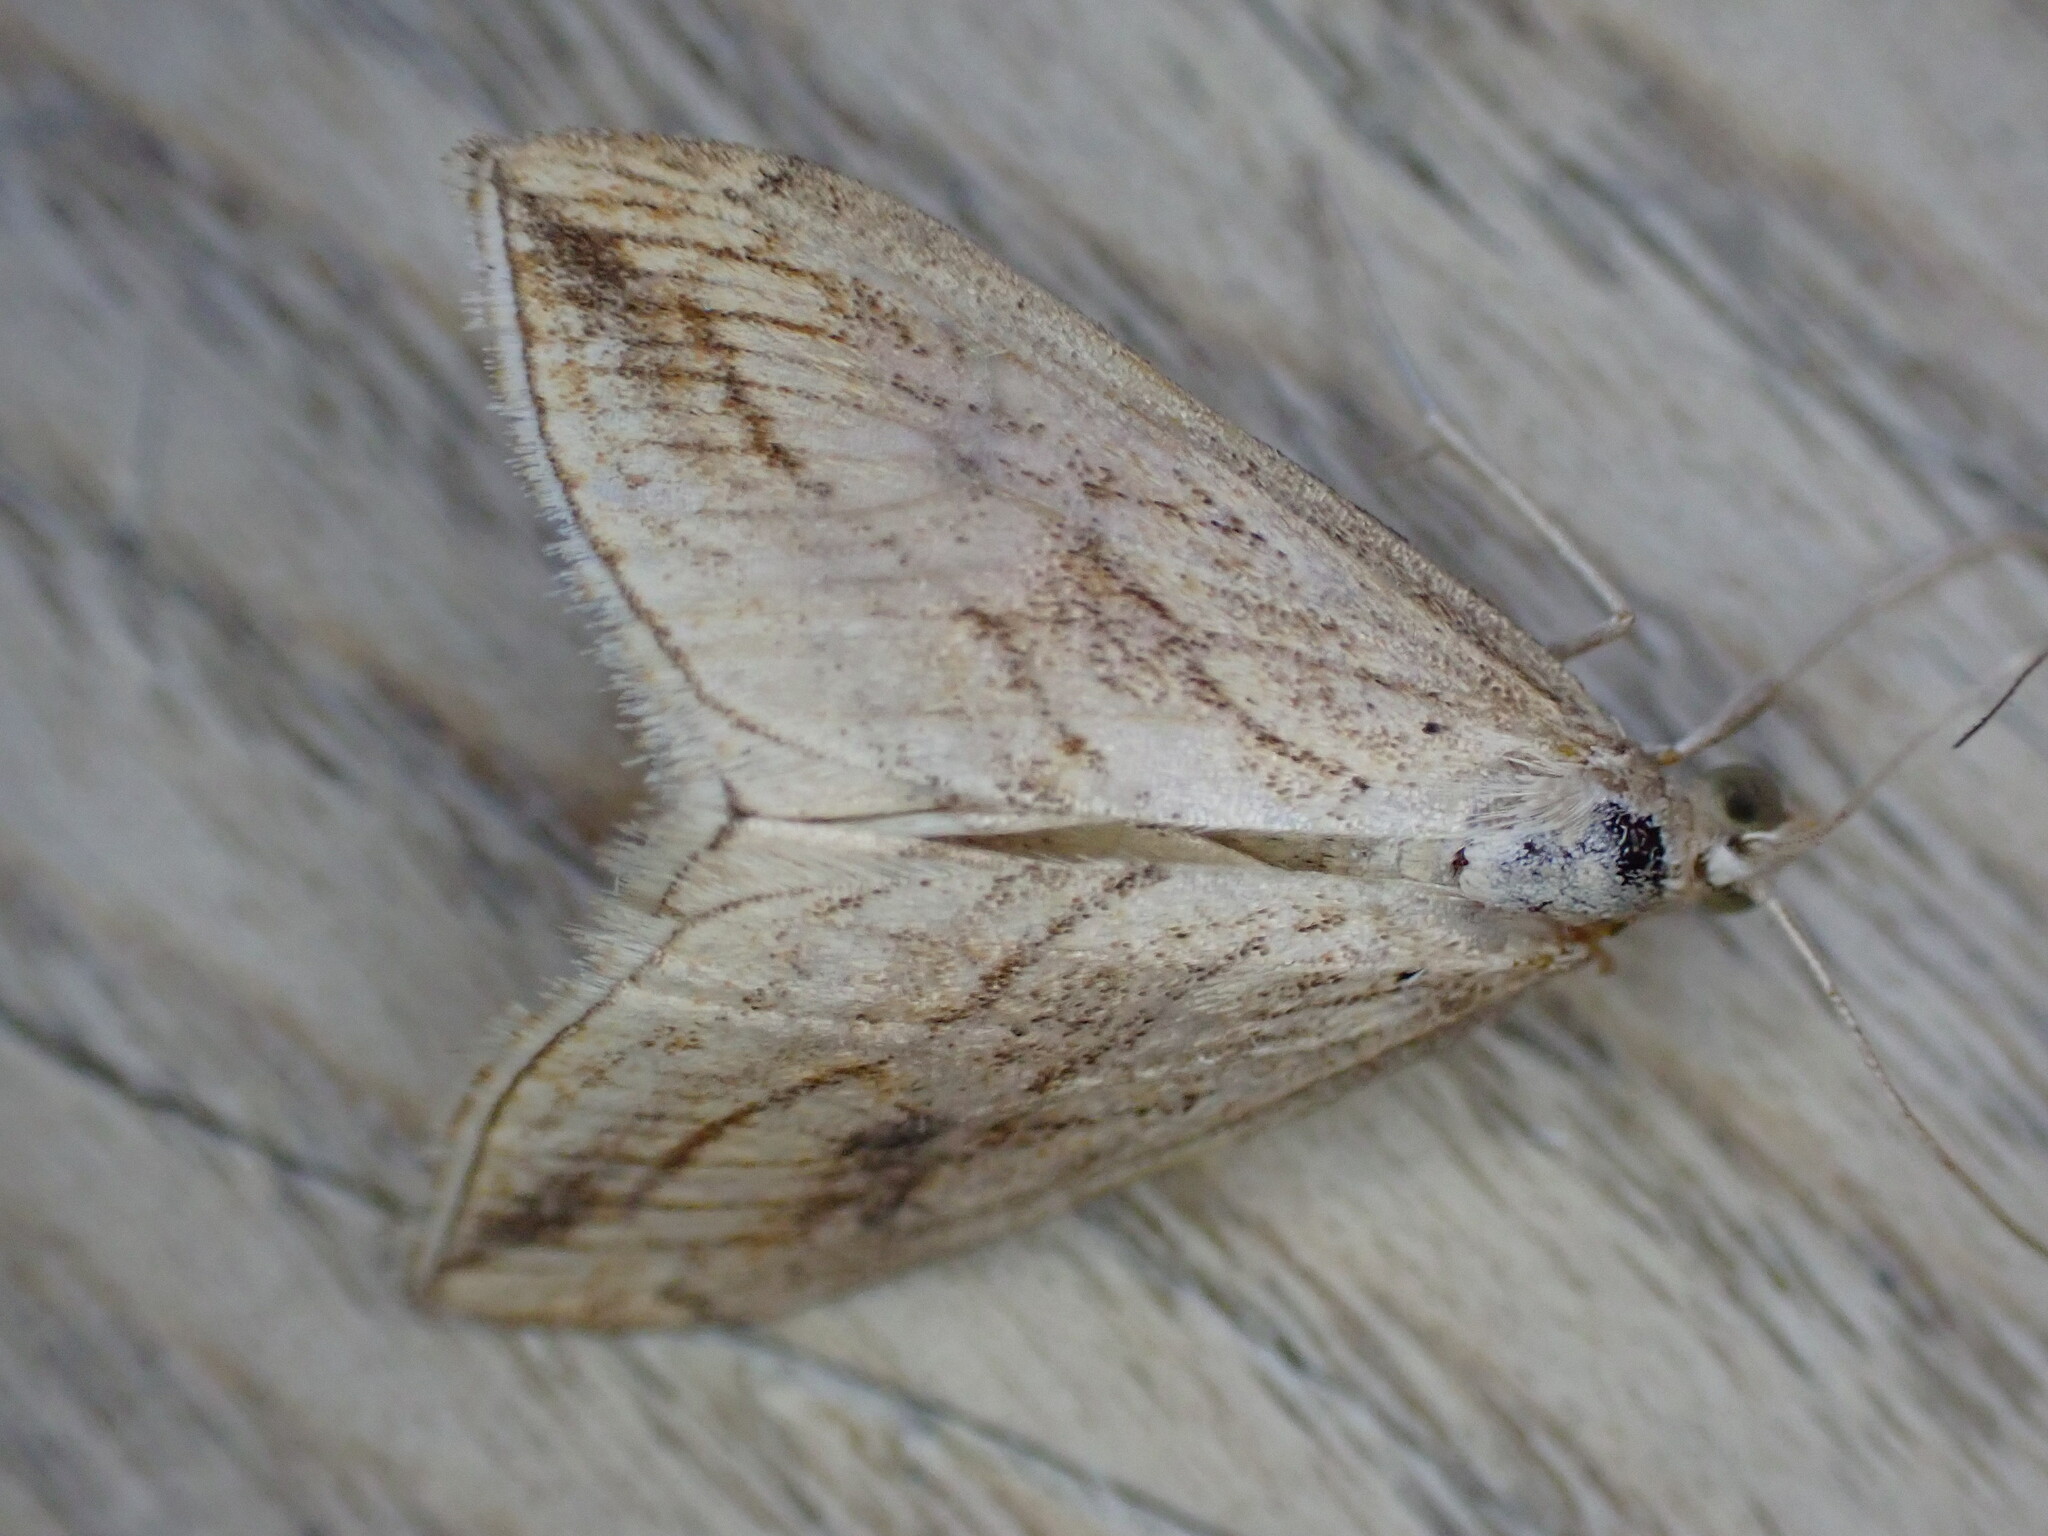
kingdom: Animalia
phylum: Arthropoda
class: Insecta
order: Lepidoptera
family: Crambidae
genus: Evergestis
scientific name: Evergestis forficalis
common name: Garden pebble
